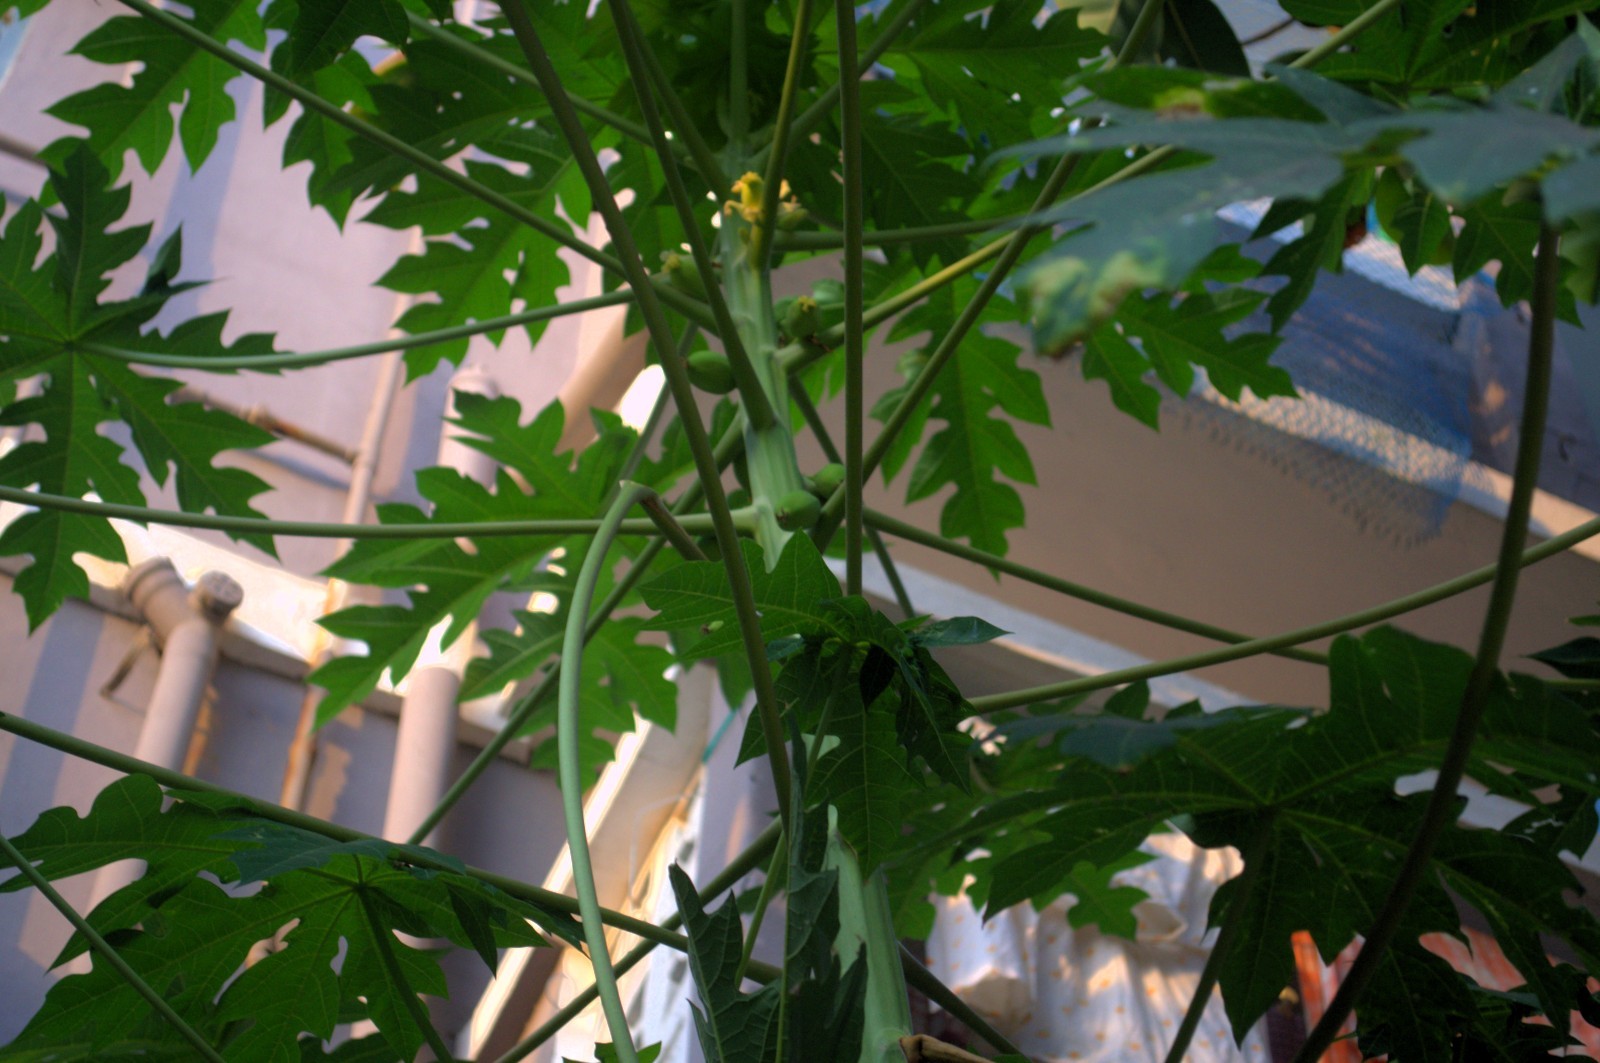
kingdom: Plantae
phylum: Tracheophyta
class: Magnoliopsida
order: Brassicales
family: Caricaceae
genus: Carica
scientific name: Carica papaya
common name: Papaya
